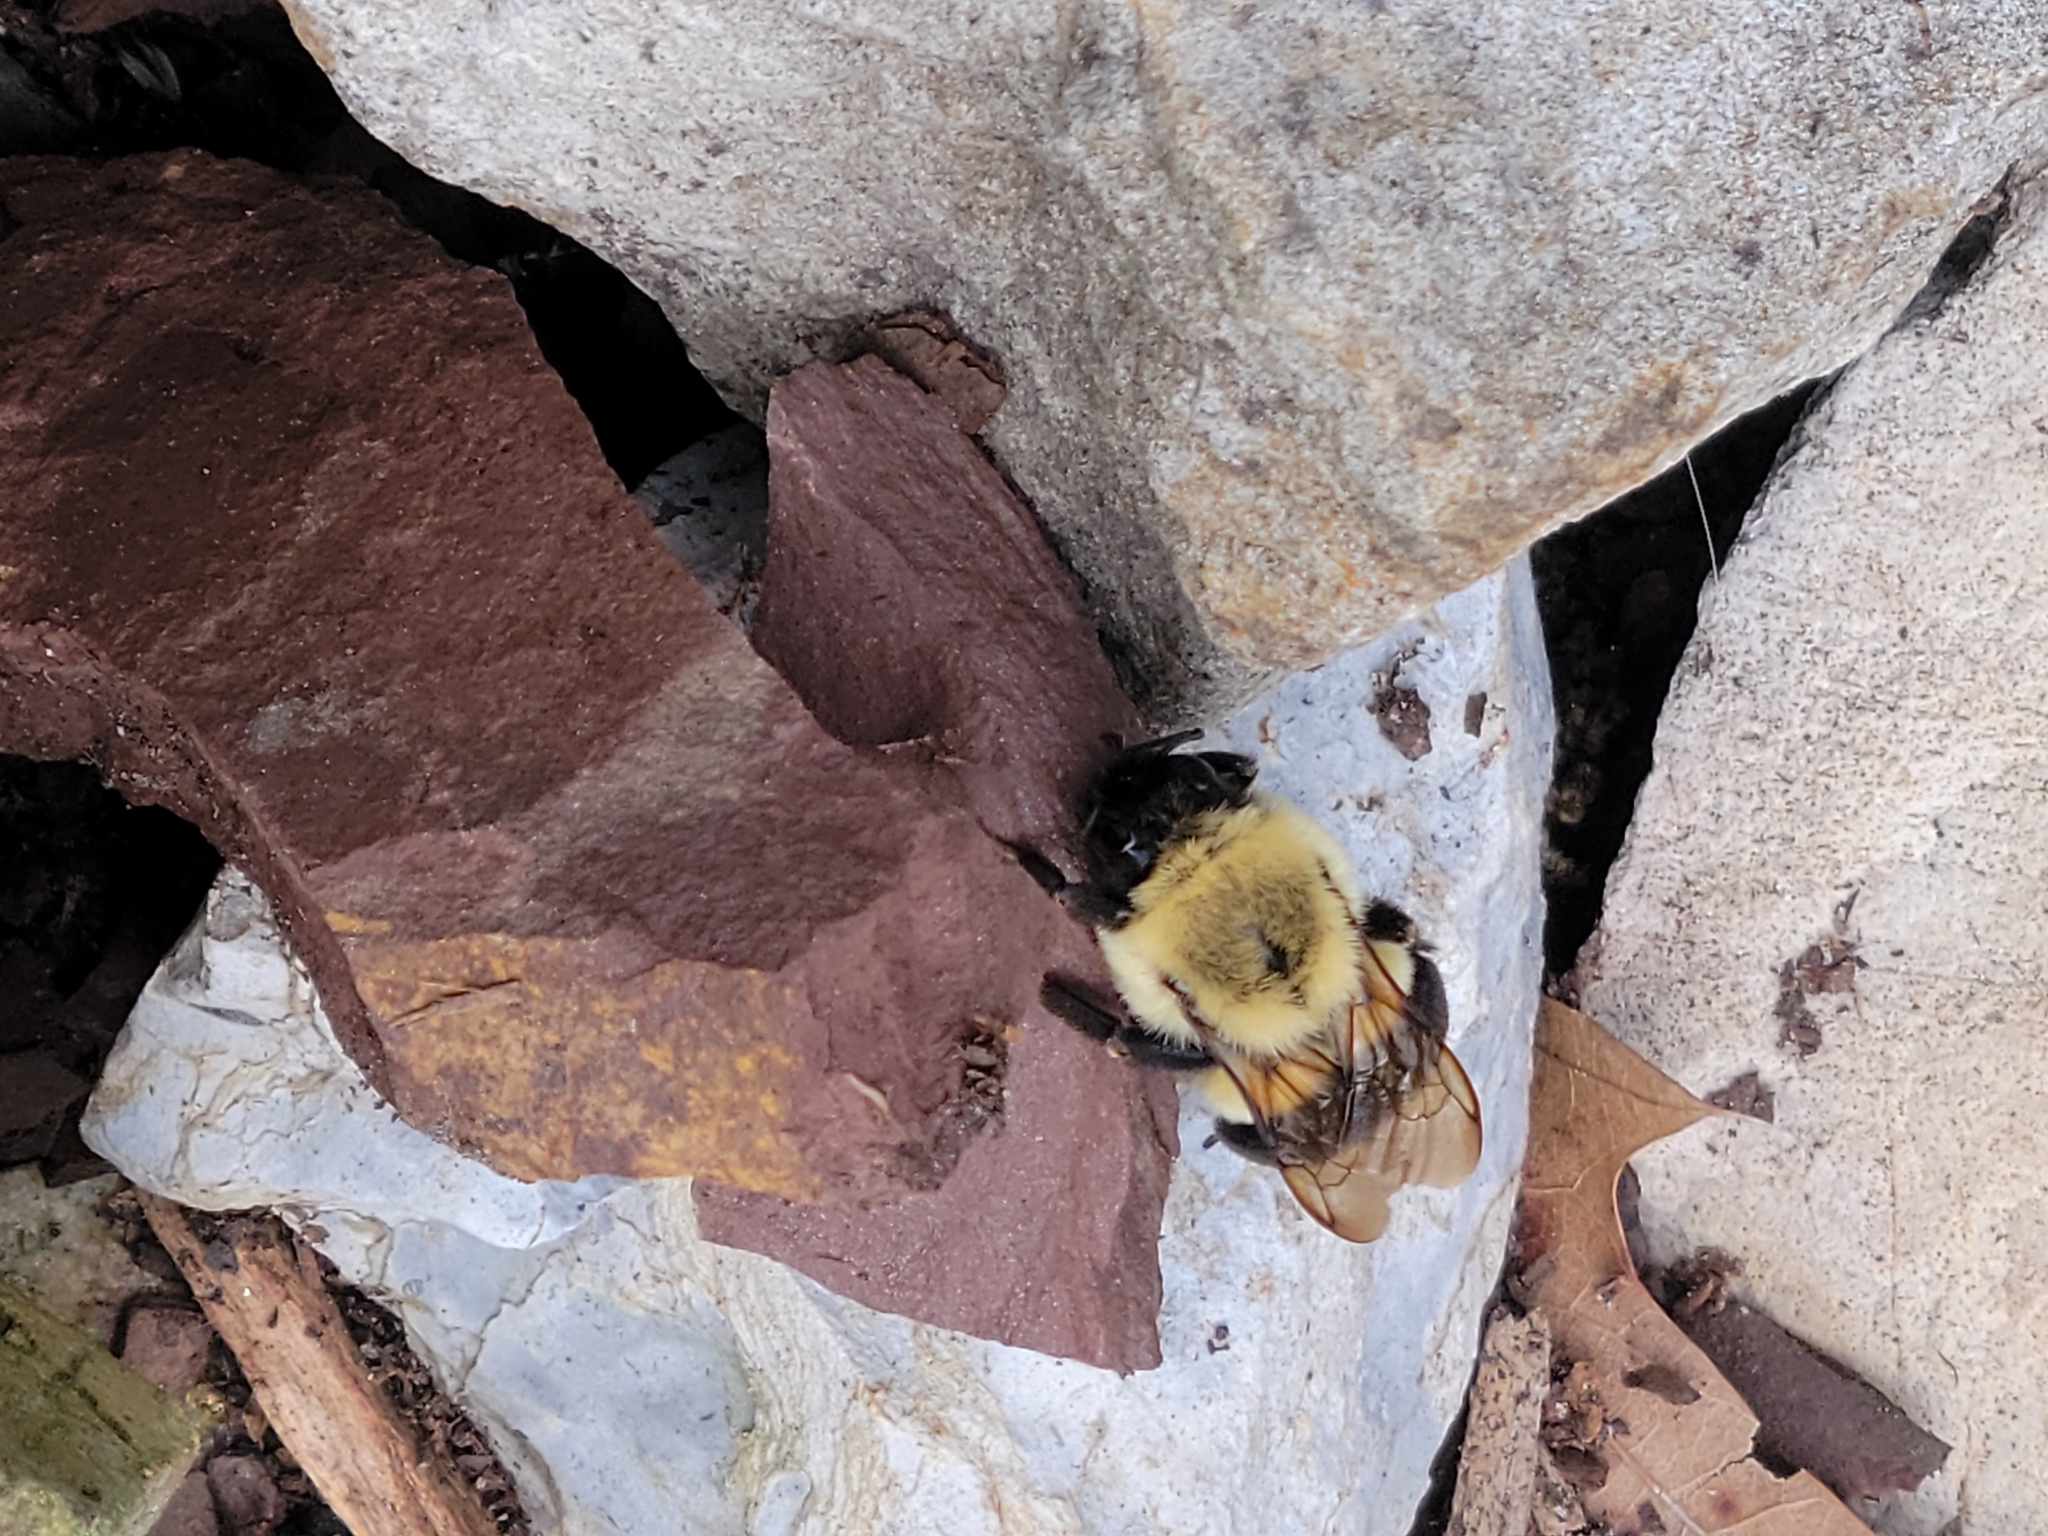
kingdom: Animalia
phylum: Arthropoda
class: Insecta
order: Hymenoptera
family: Apidae
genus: Bombus
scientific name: Bombus impatiens
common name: Common eastern bumble bee
